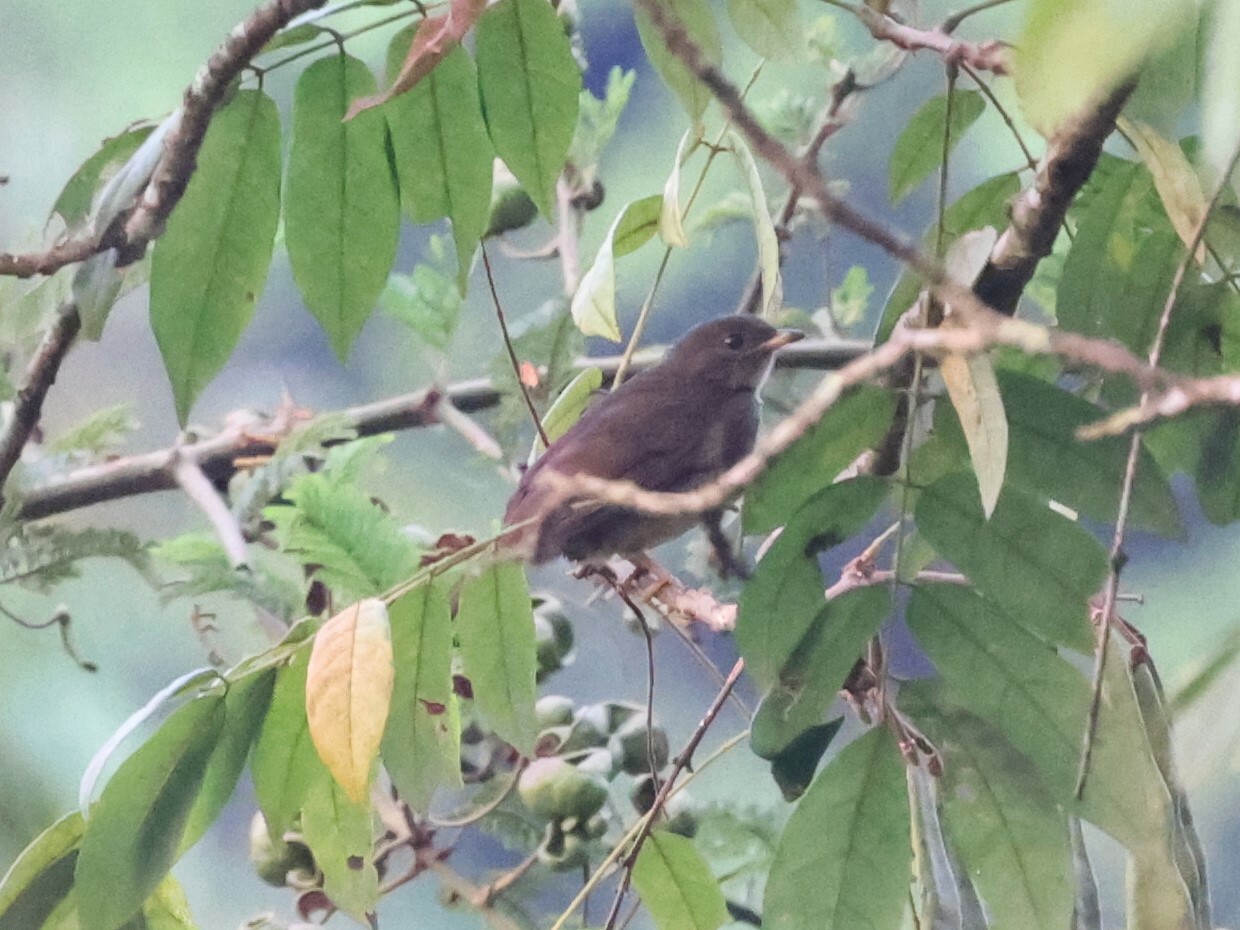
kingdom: Animalia
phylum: Chordata
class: Aves
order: Passeriformes
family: Pycnonotidae
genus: Eurillas
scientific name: Eurillas virens
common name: Little greenbul
